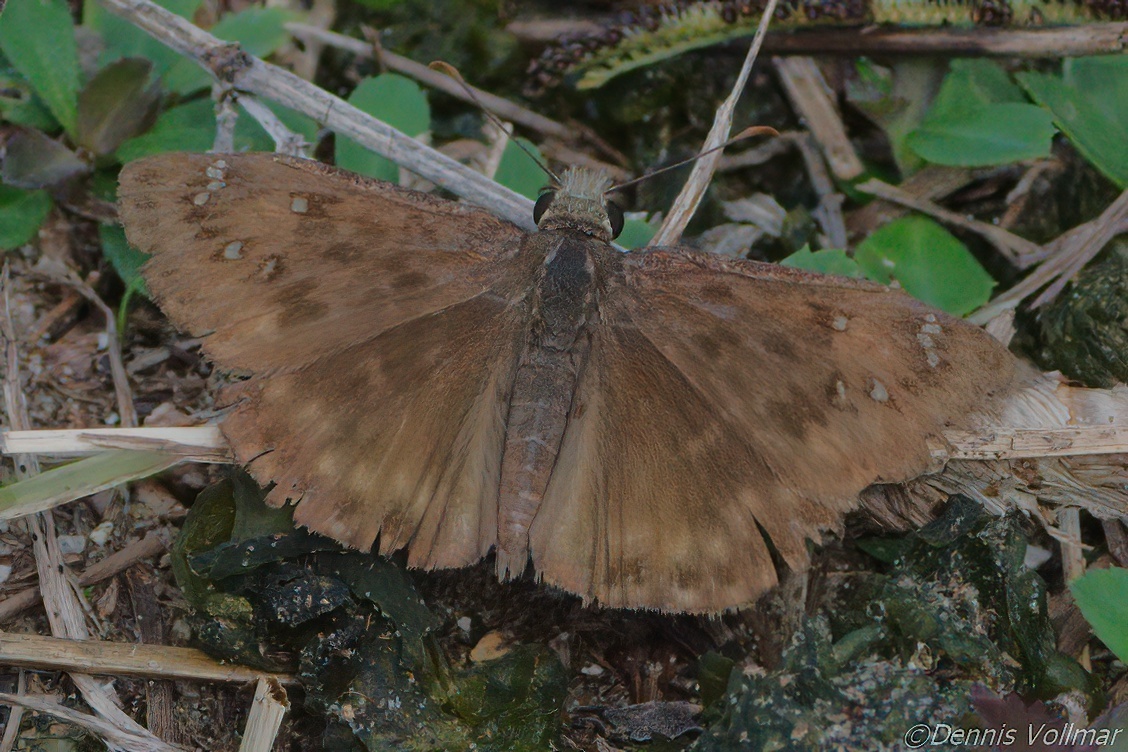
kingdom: Animalia
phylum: Arthropoda
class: Insecta
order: Lepidoptera
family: Hesperiidae
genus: Erynnis
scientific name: Erynnis horatius
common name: Horace's duskywing
